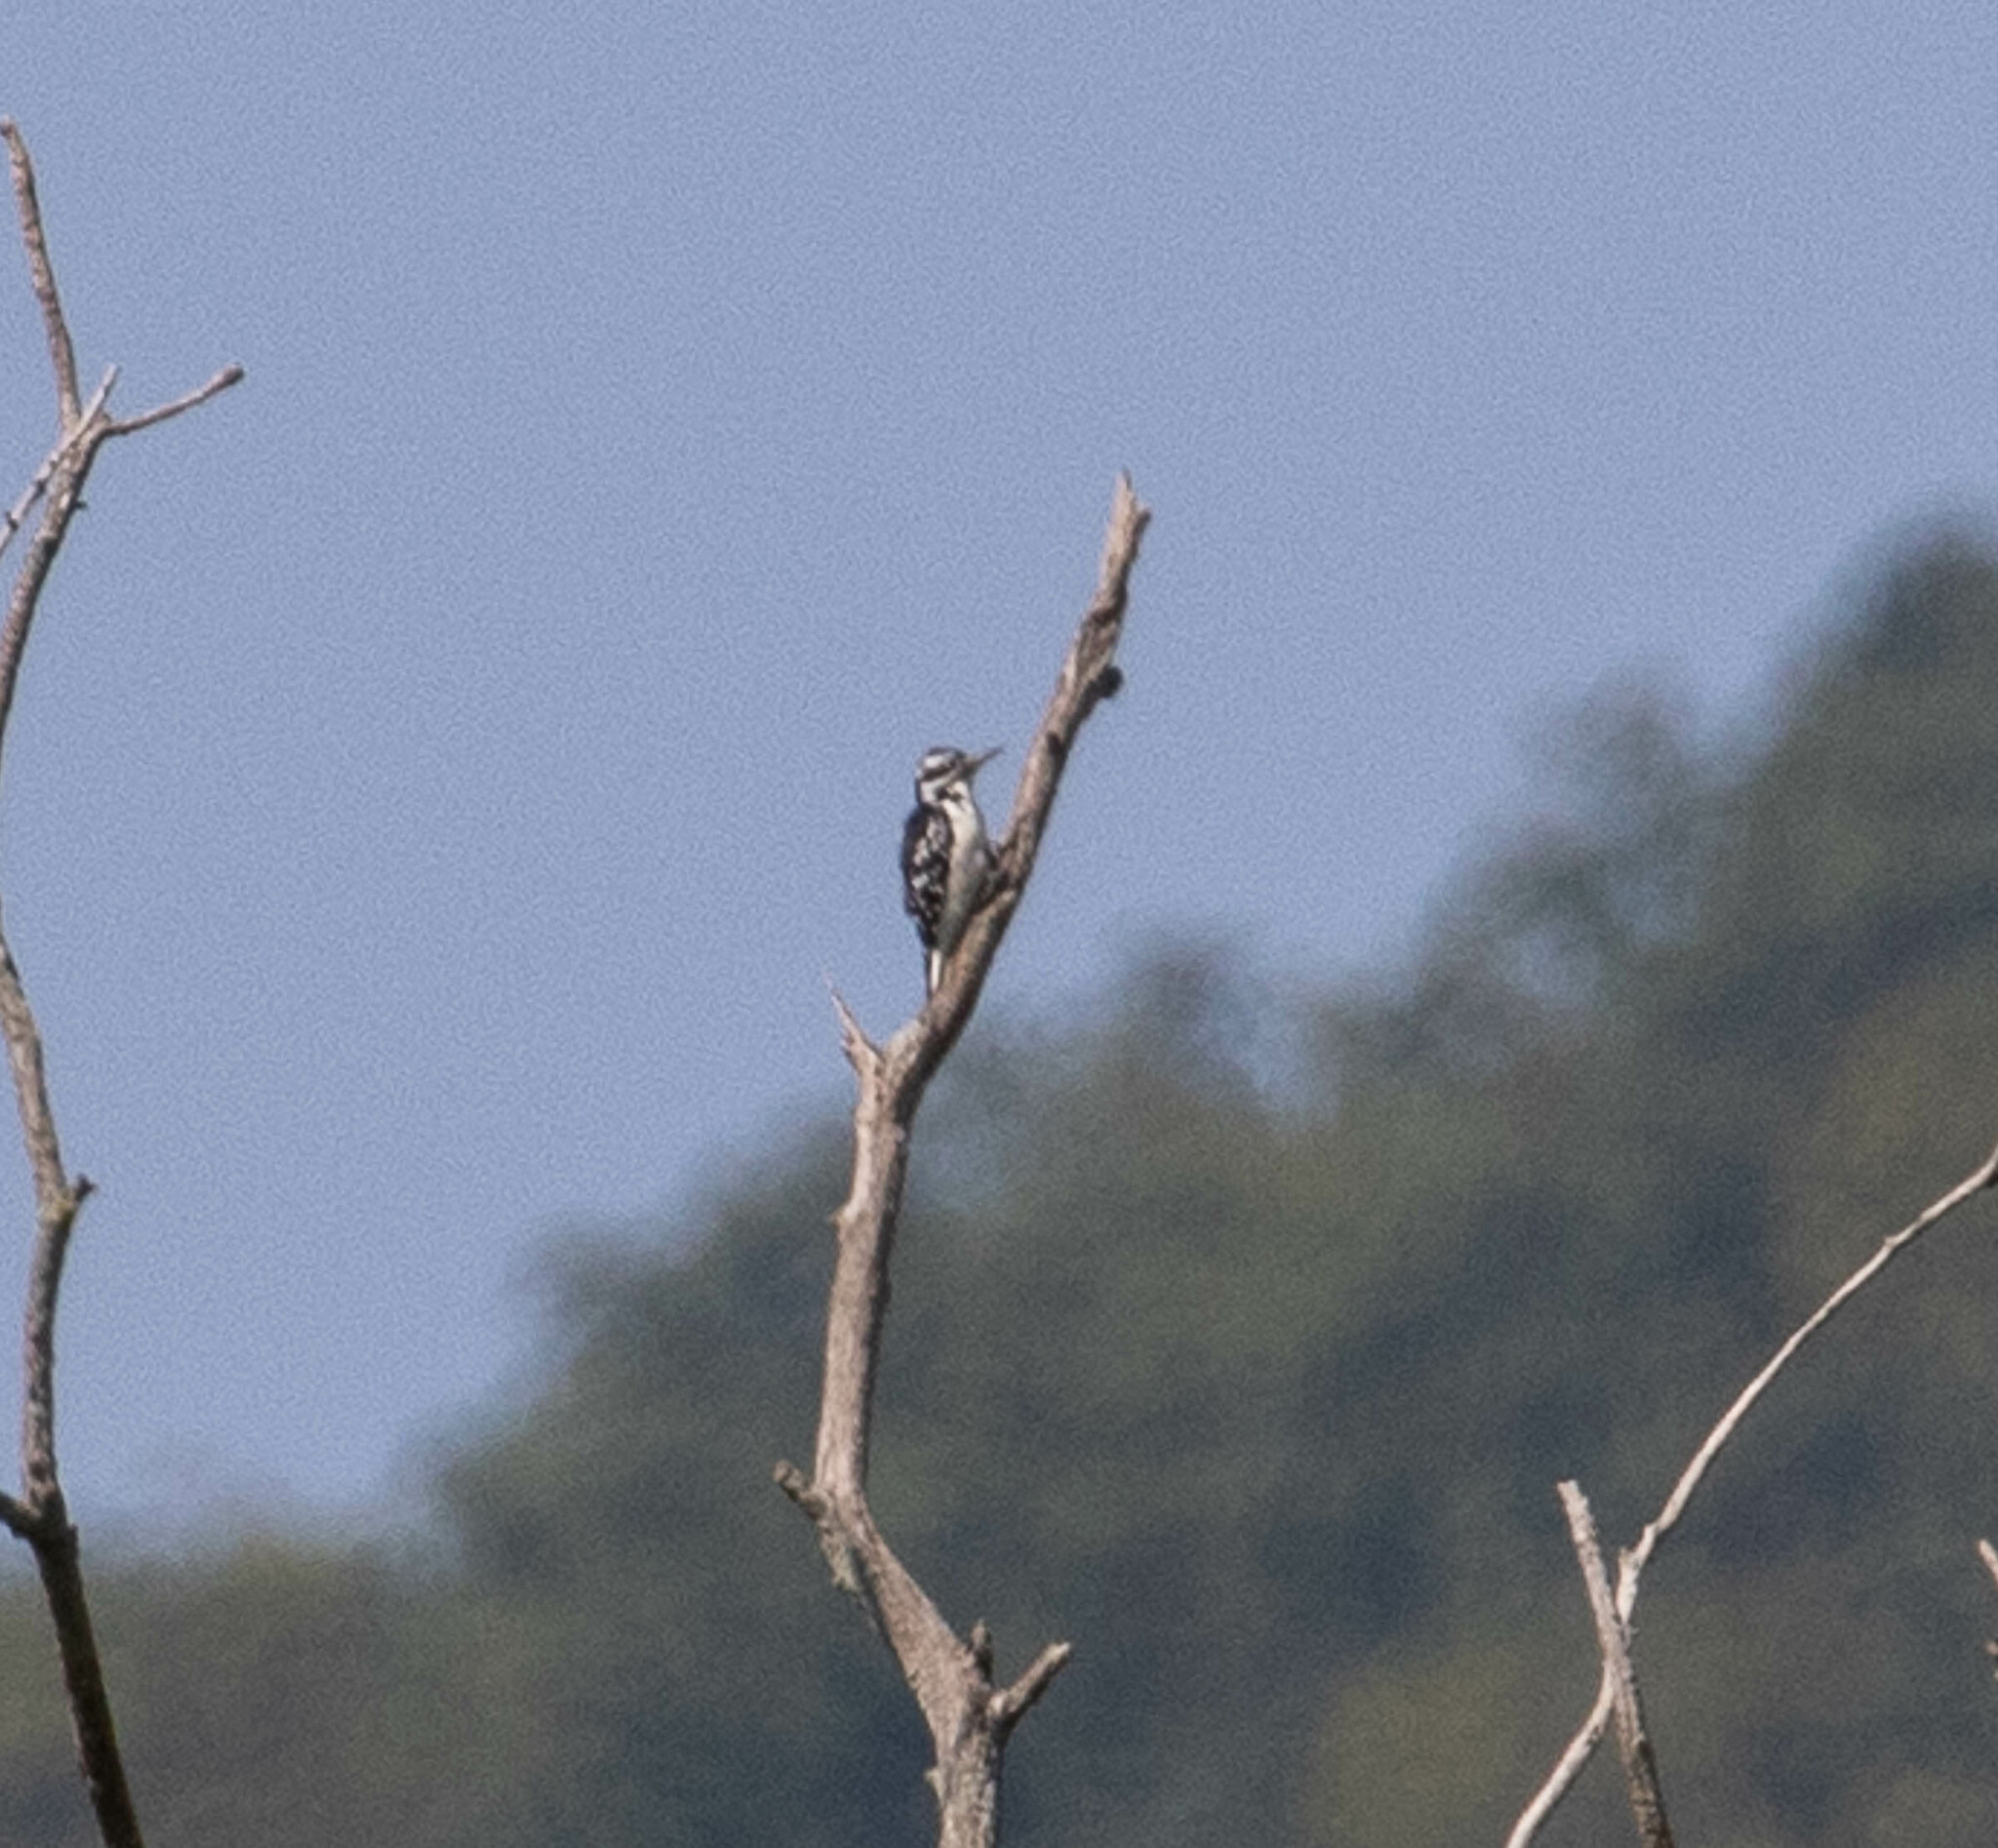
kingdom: Animalia
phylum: Chordata
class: Aves
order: Piciformes
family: Picidae
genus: Leuconotopicus
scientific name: Leuconotopicus villosus
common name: Hairy woodpecker
